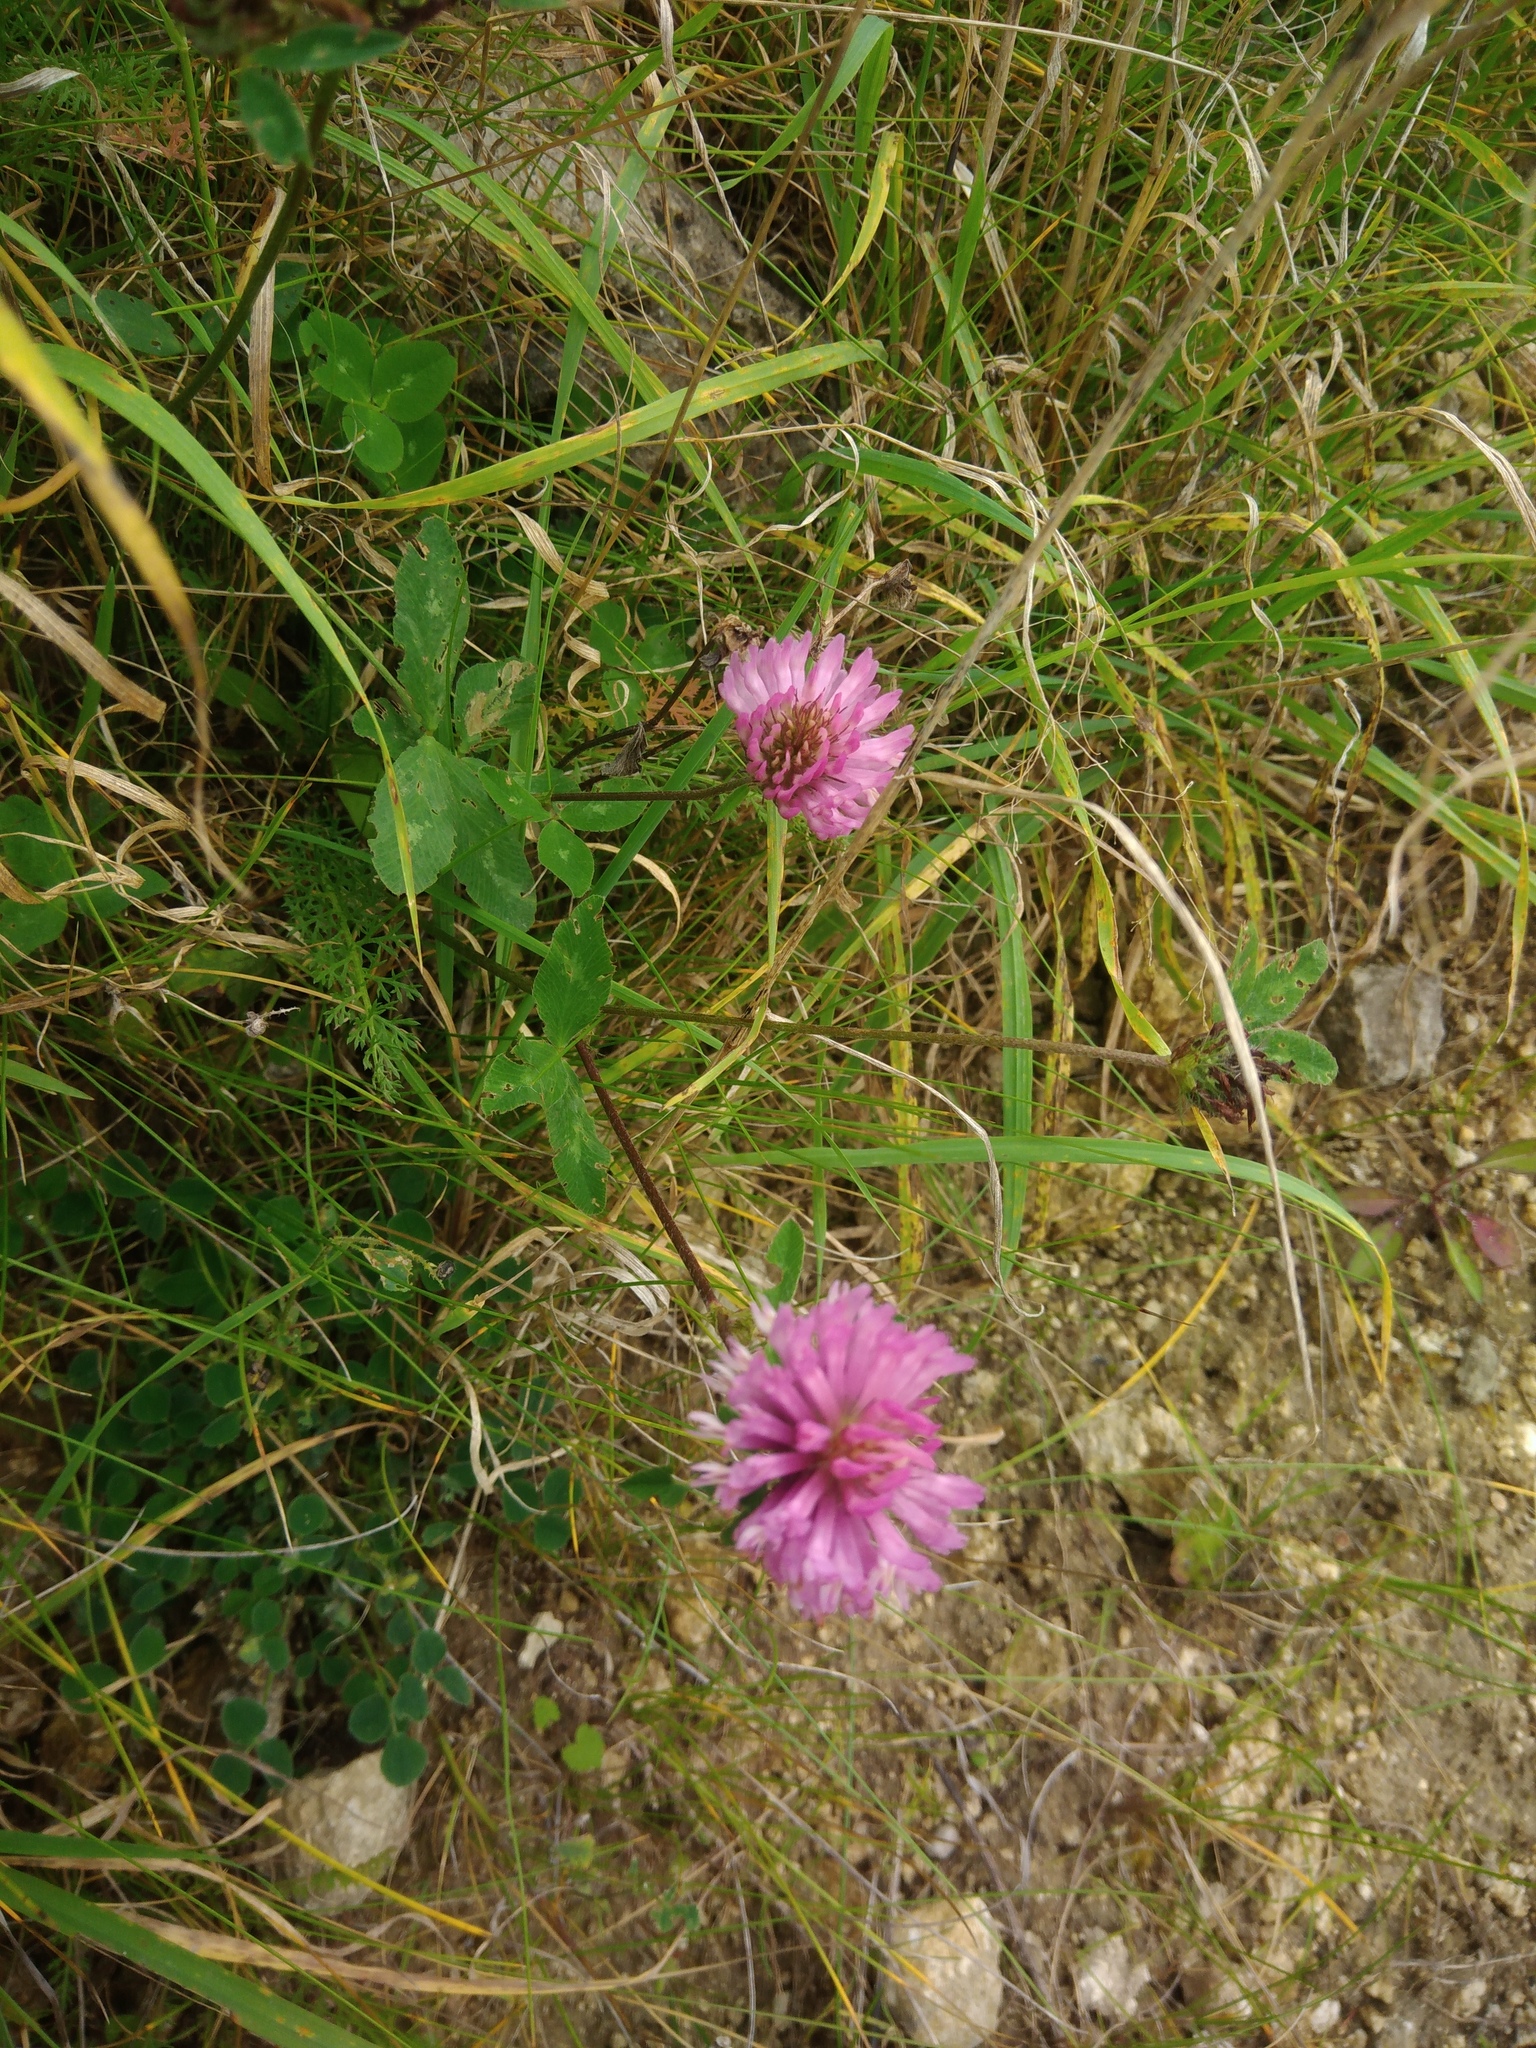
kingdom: Plantae
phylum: Tracheophyta
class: Magnoliopsida
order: Fabales
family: Fabaceae
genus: Trifolium
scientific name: Trifolium pratense
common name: Red clover
